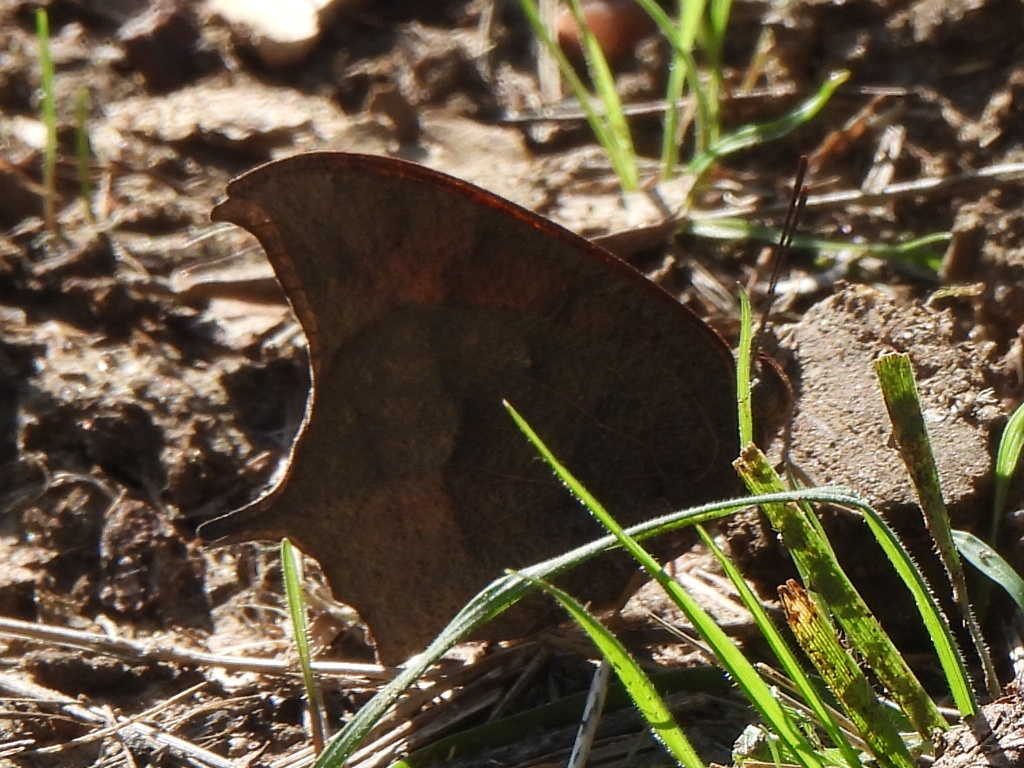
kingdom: Animalia
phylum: Arthropoda
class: Insecta
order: Lepidoptera
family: Nymphalidae
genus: Anaea
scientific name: Anaea andria
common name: Goatweed leafwing
